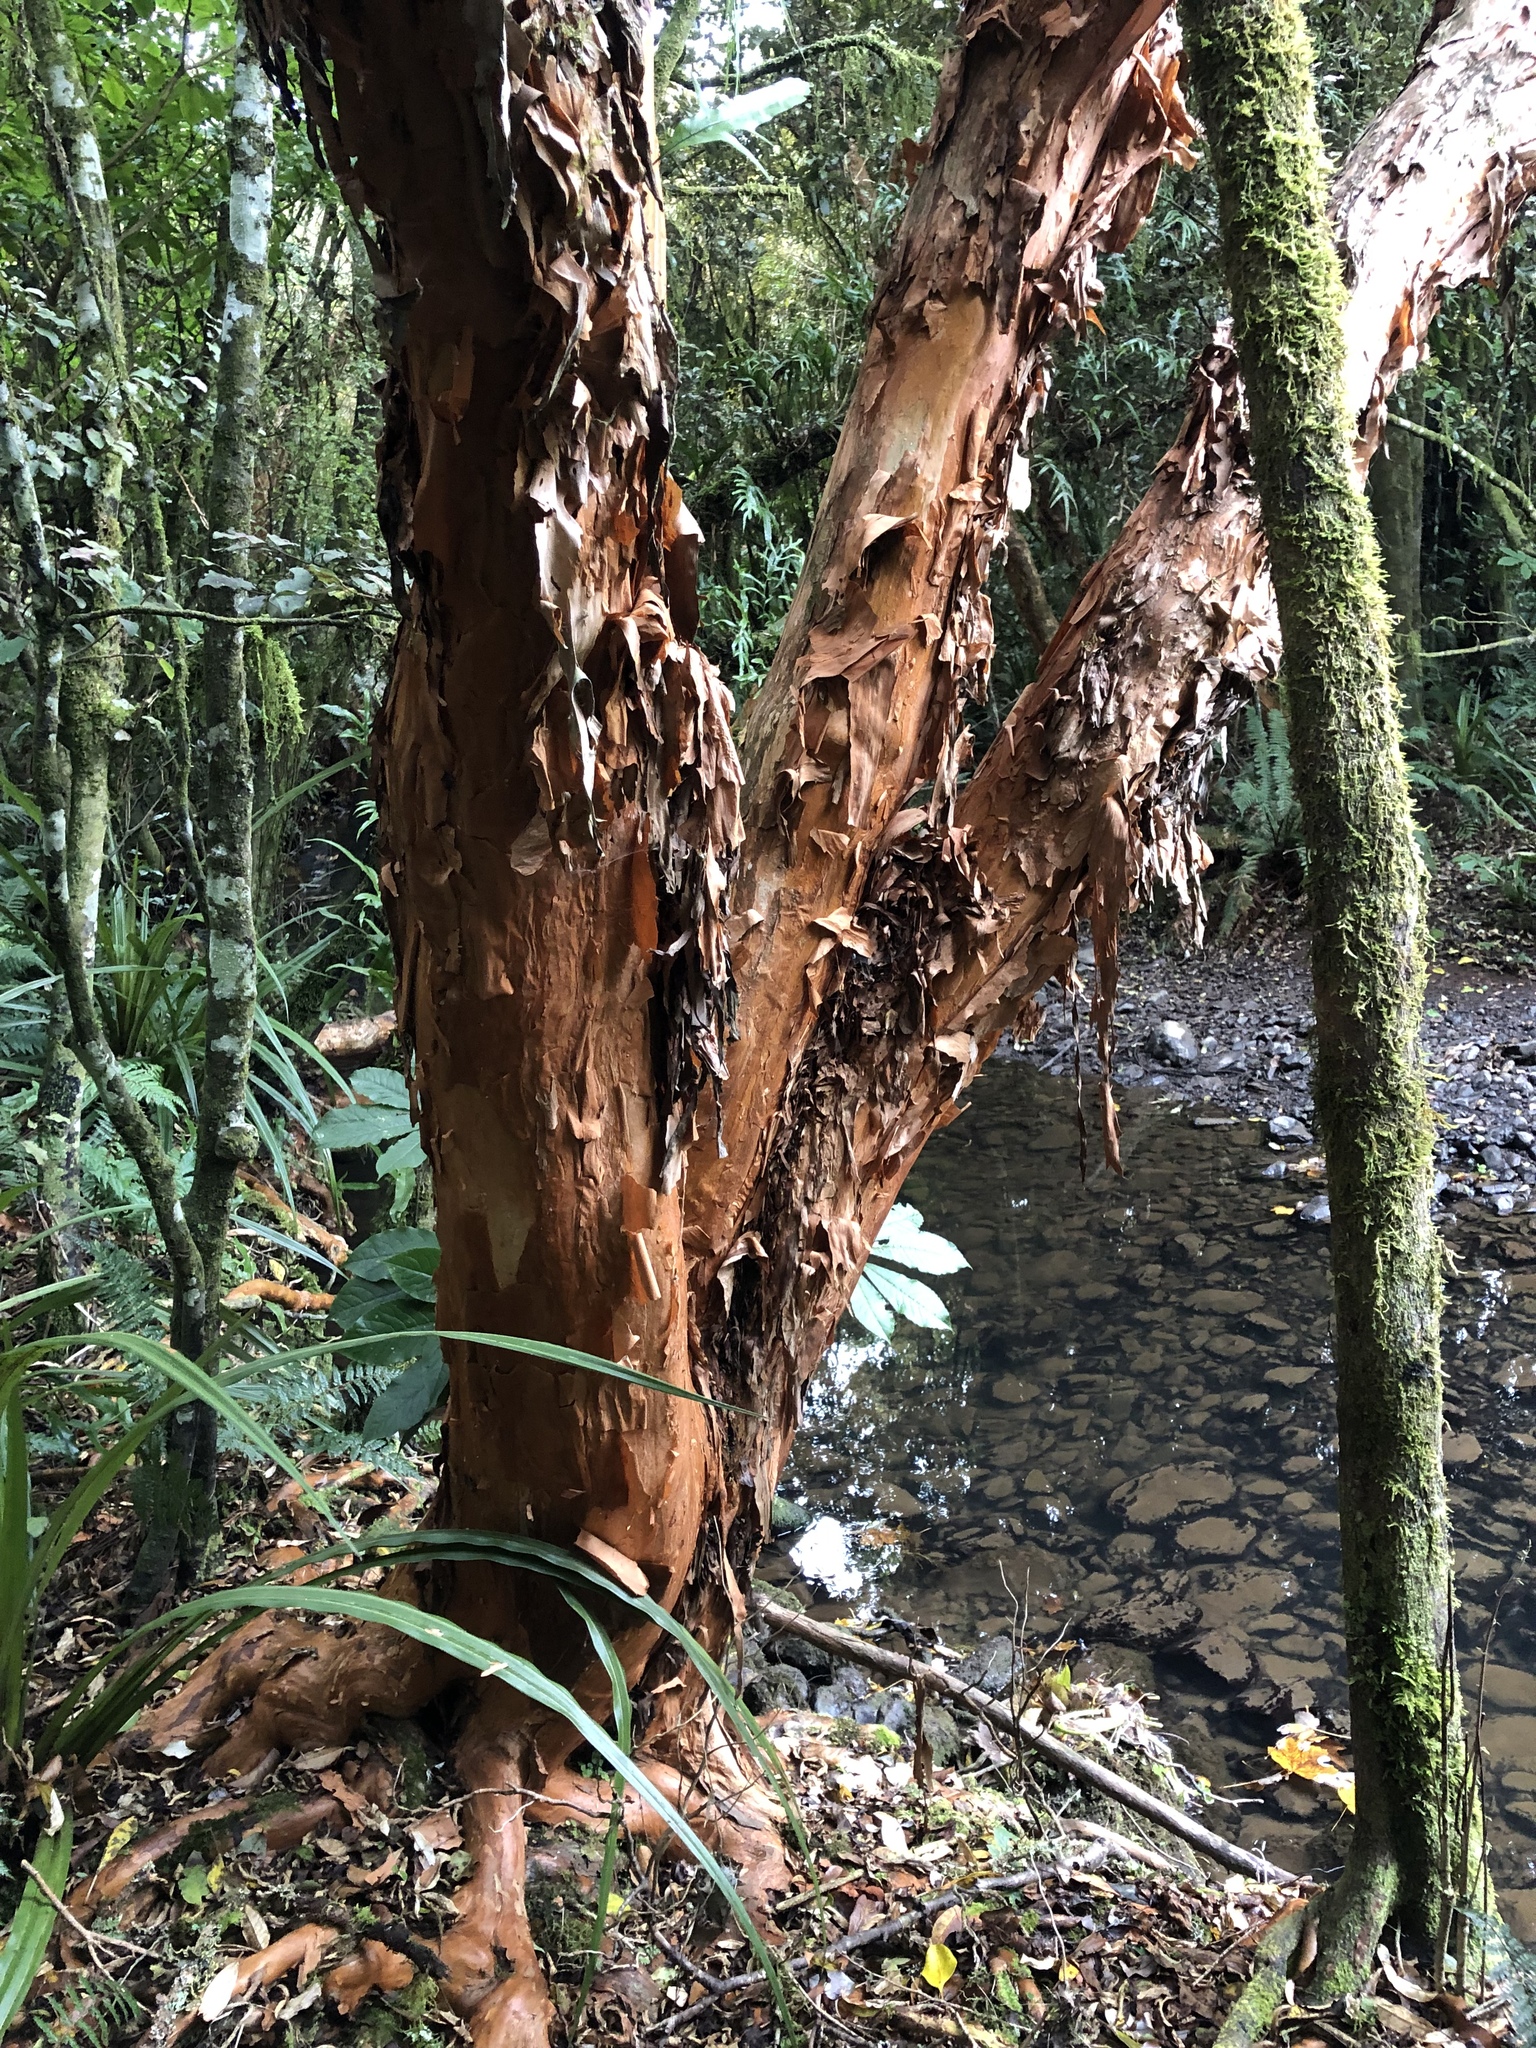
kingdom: Plantae
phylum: Tracheophyta
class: Magnoliopsida
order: Myrtales
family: Onagraceae
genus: Fuchsia
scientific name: Fuchsia excorticata
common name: Tree fuchsia
